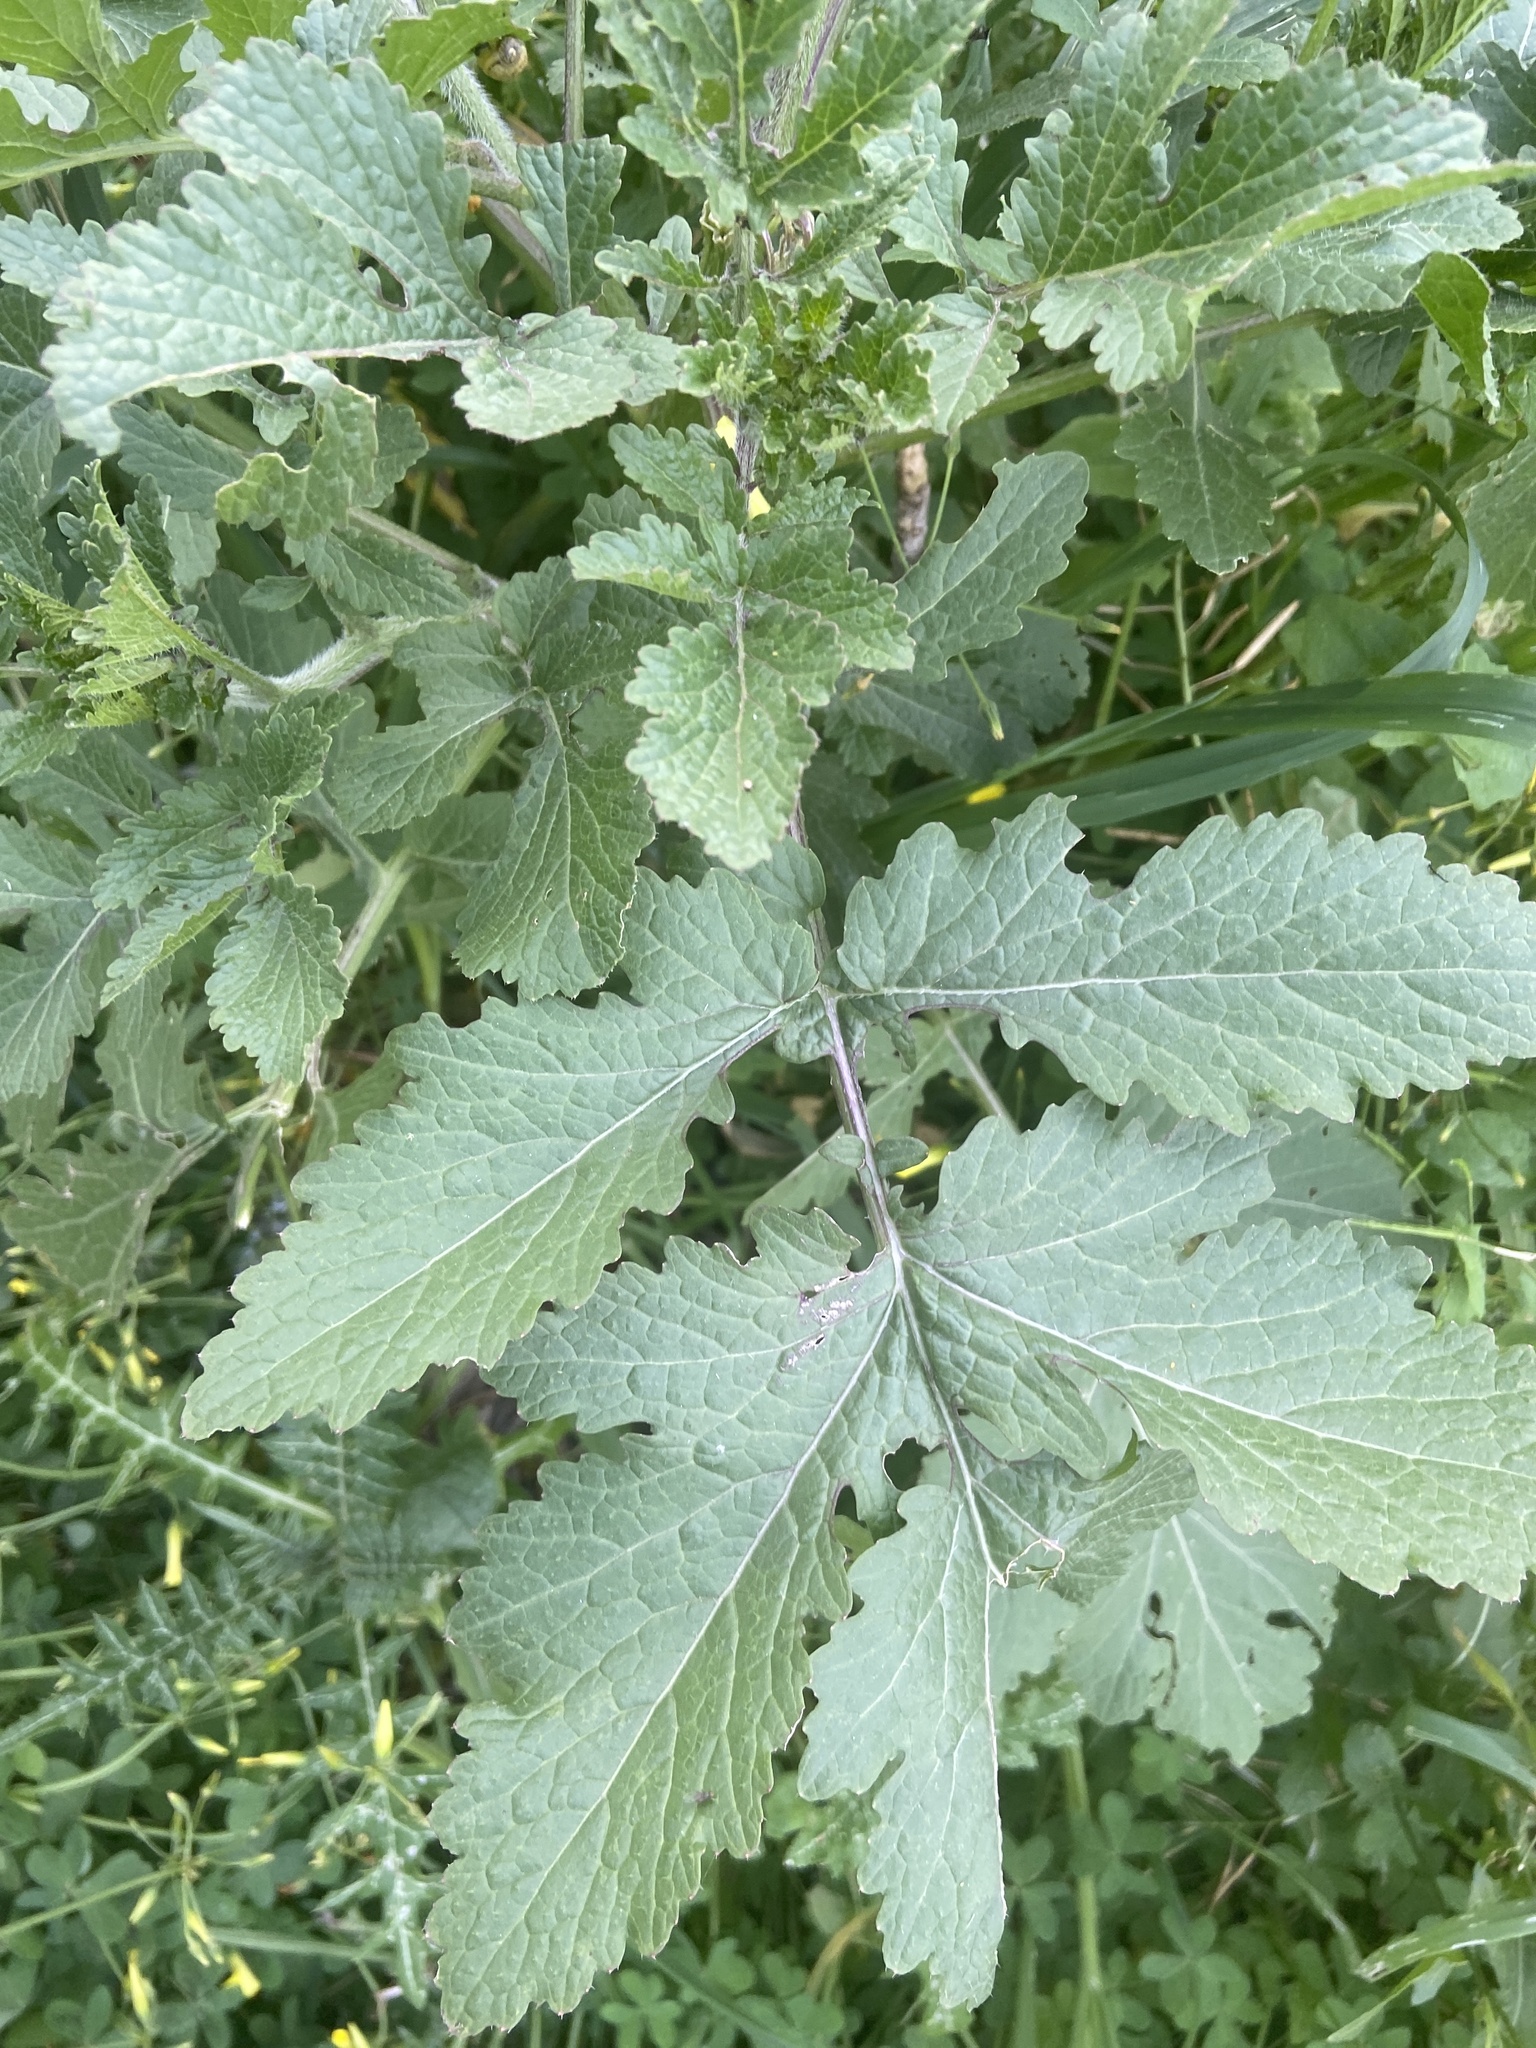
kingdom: Plantae
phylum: Tracheophyta
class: Magnoliopsida
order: Brassicales
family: Brassicaceae
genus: Sinapis
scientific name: Sinapis alba
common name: White mustard
